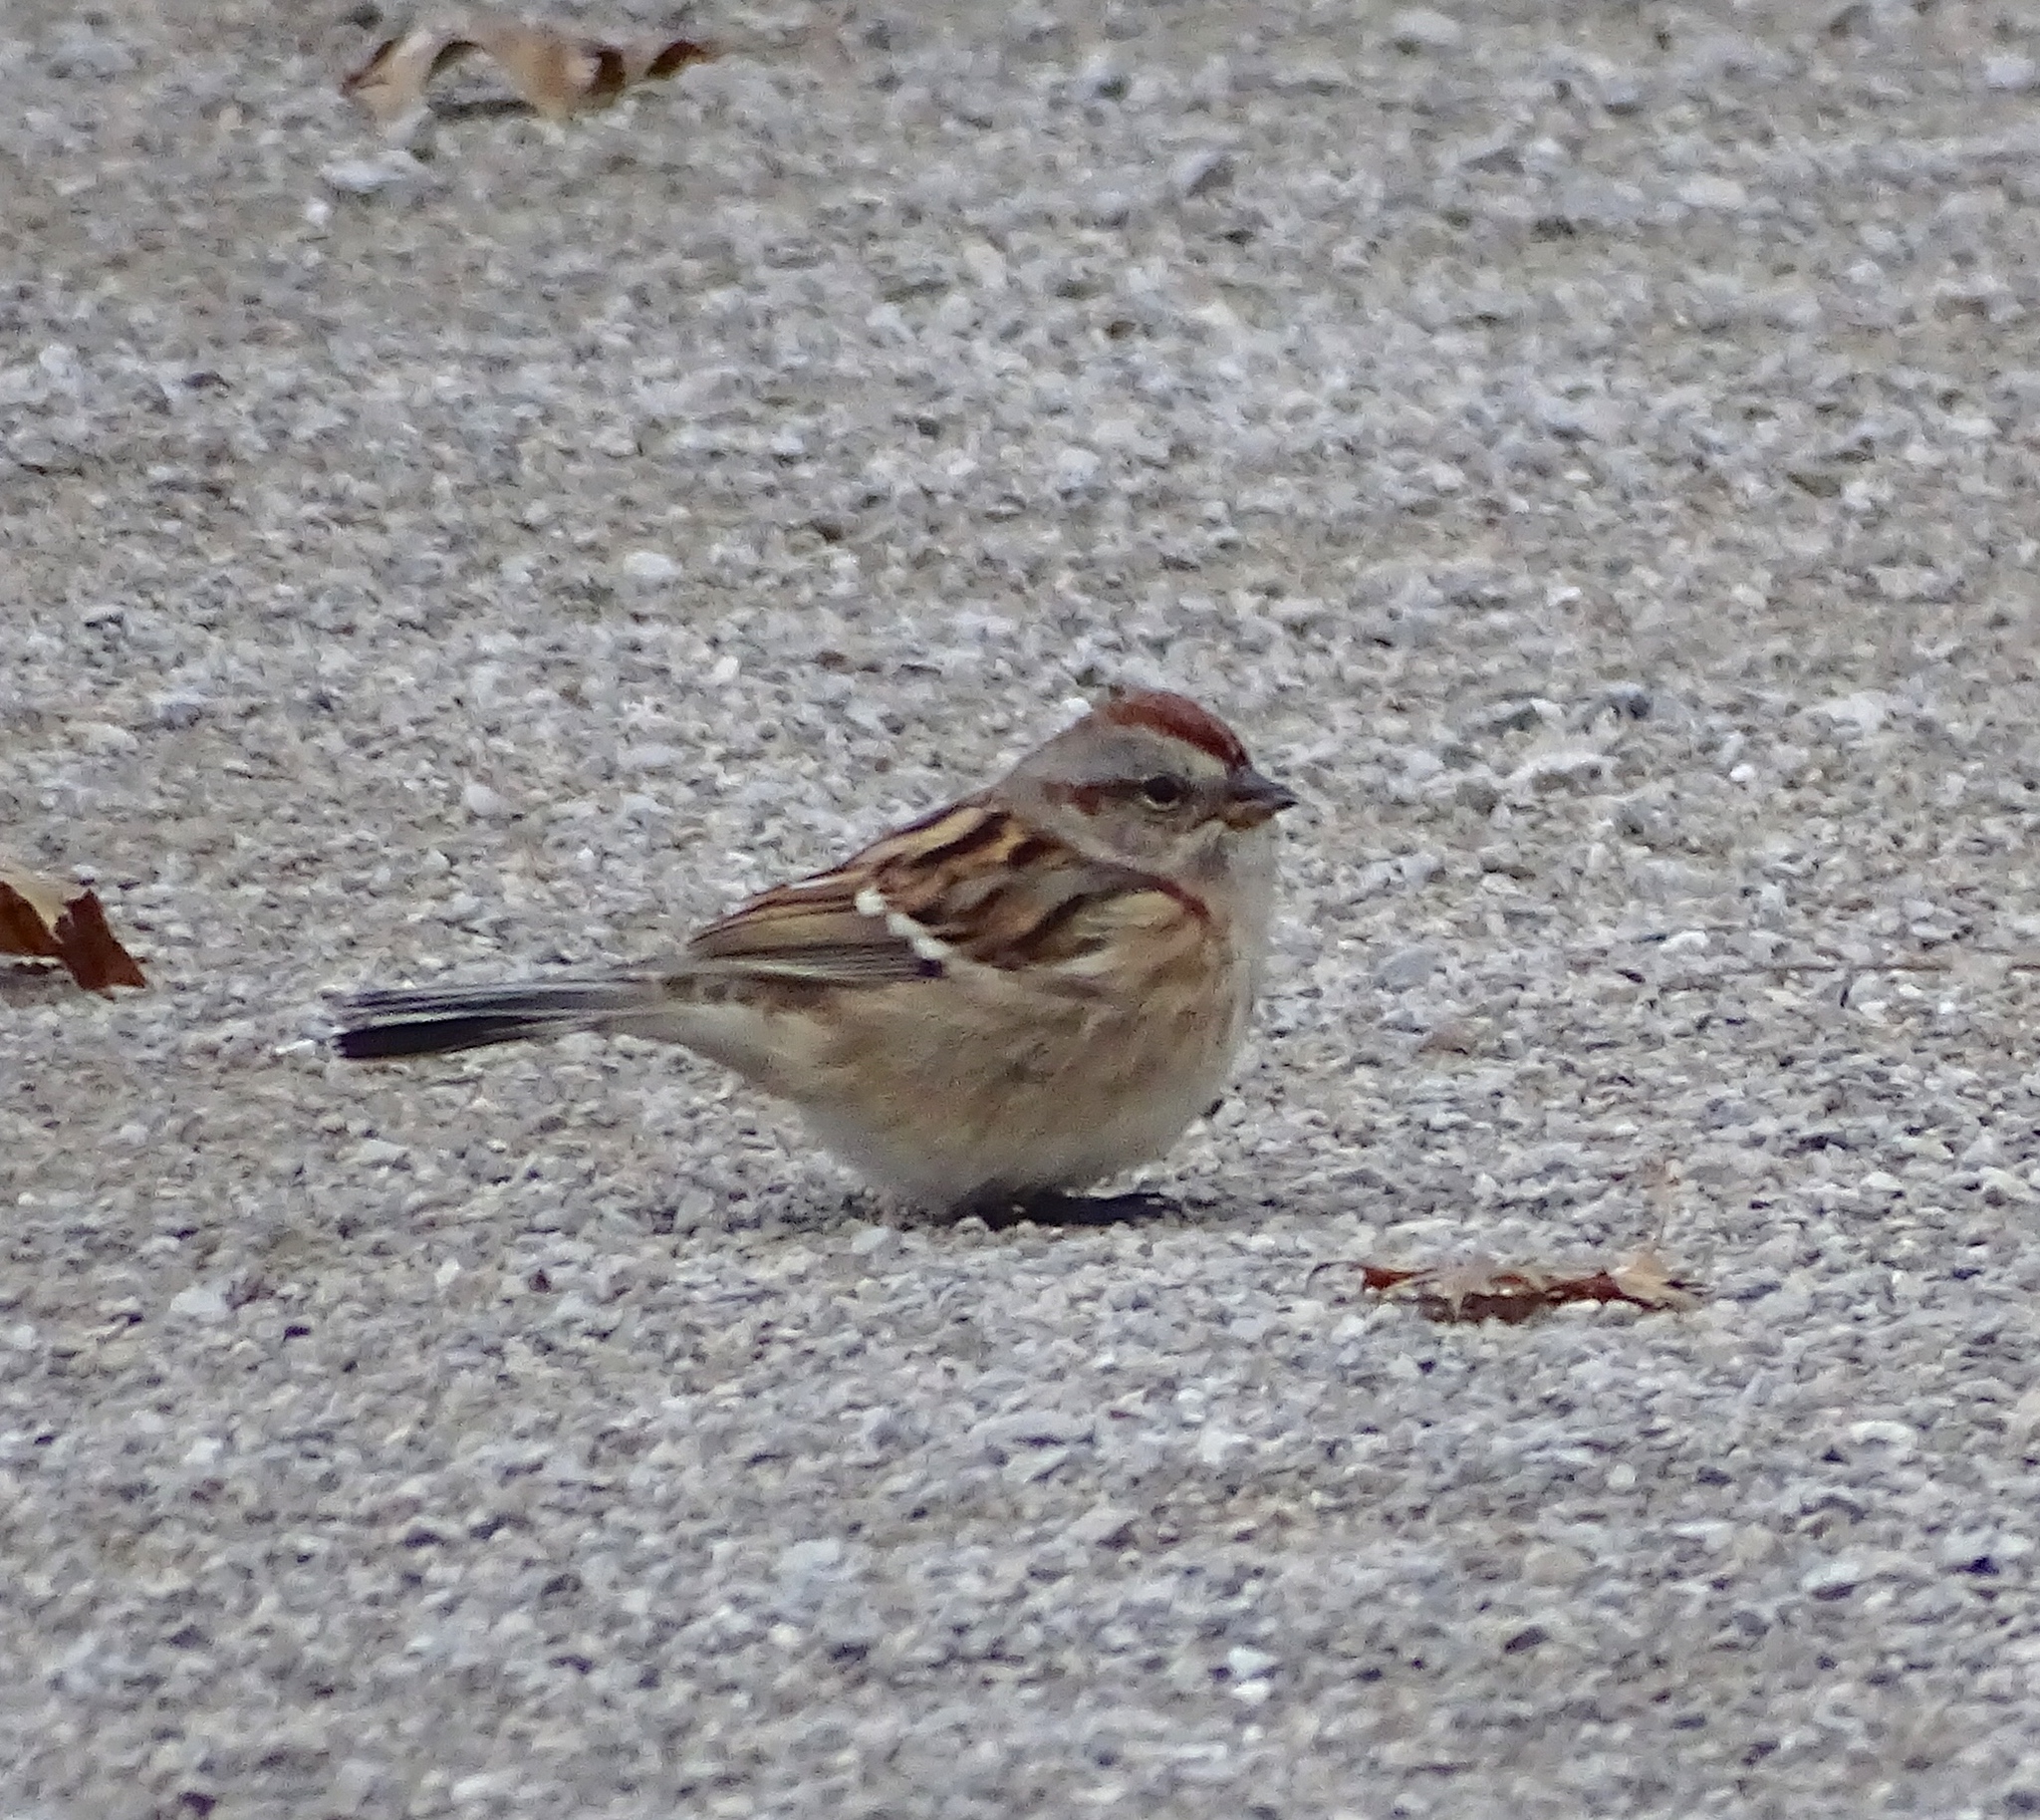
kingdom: Animalia
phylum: Chordata
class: Aves
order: Passeriformes
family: Passerellidae
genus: Spizelloides
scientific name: Spizelloides arborea
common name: American tree sparrow
